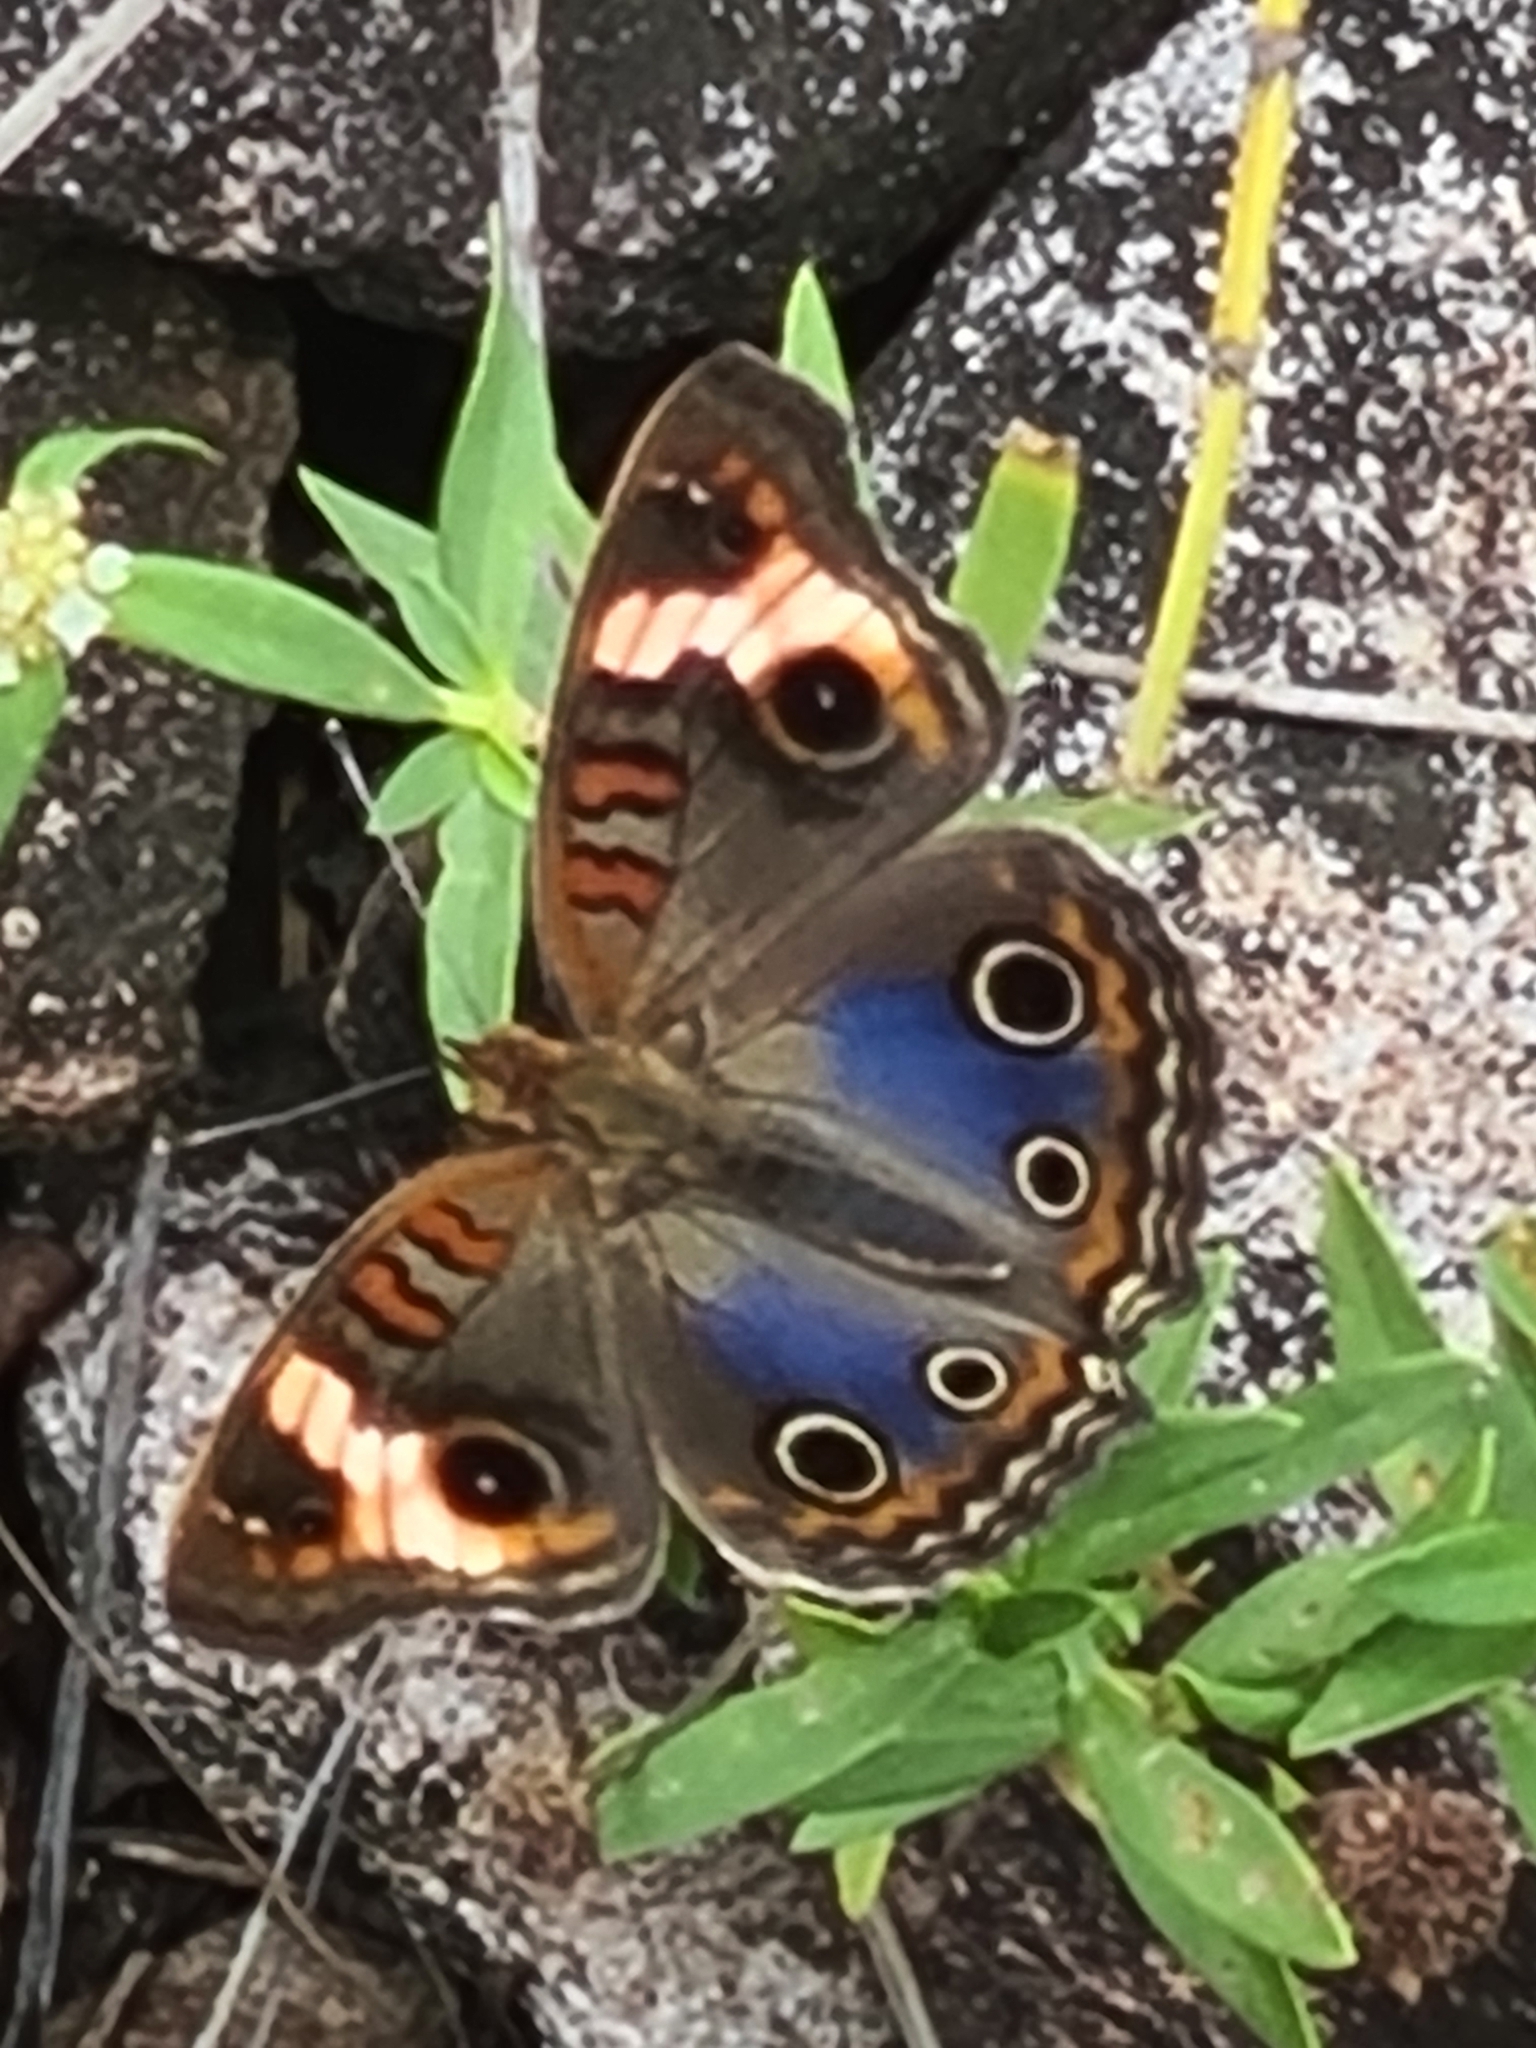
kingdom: Animalia
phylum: Arthropoda
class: Insecta
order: Lepidoptera
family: Nymphalidae
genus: Junonia
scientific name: Junonia evarete
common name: Black mangrove buckeye
